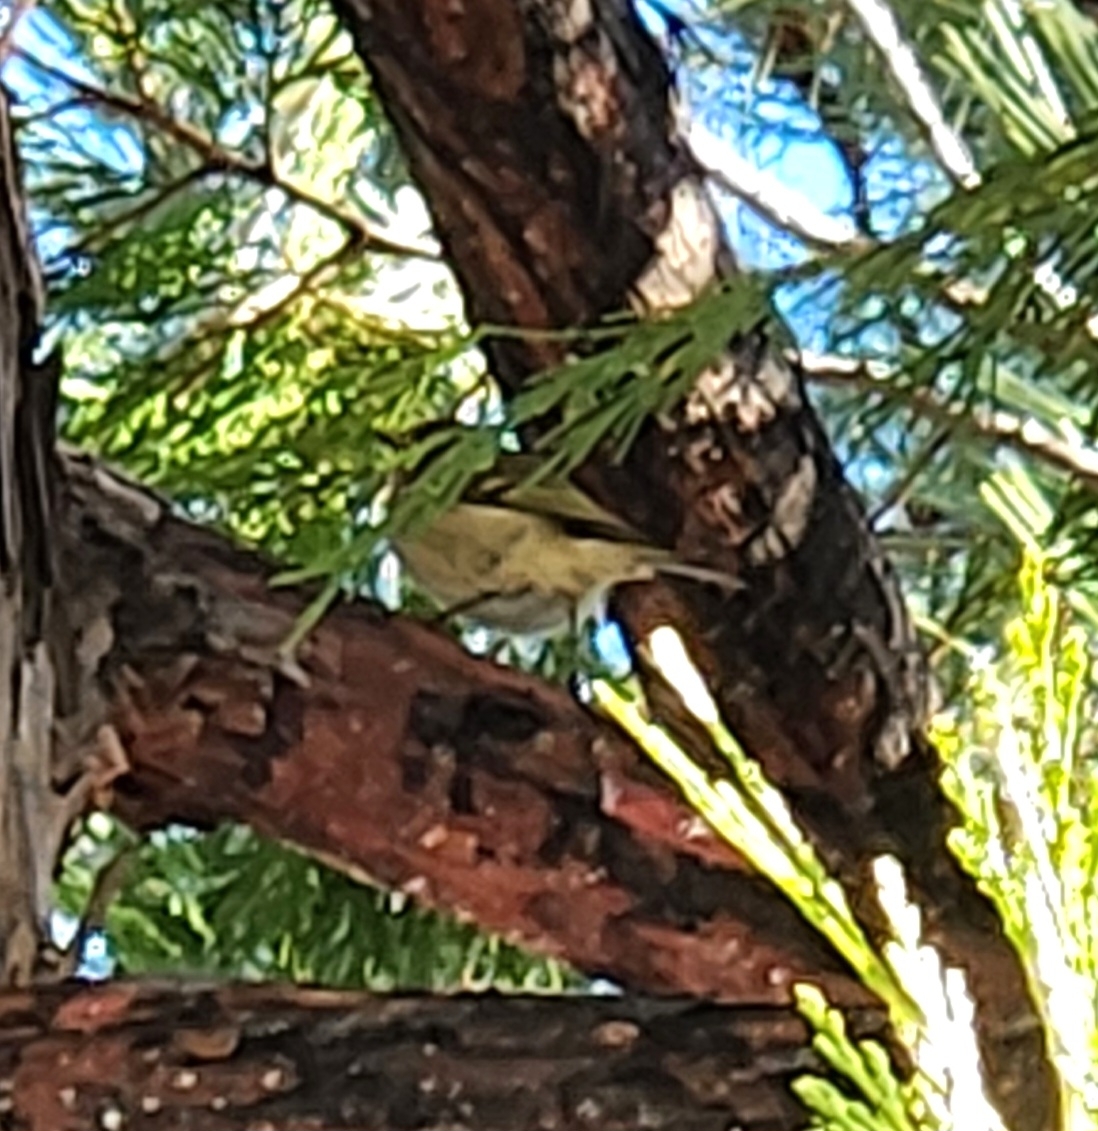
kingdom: Animalia
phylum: Chordata
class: Aves
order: Passeriformes
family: Regulidae
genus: Regulus
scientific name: Regulus calendula
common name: Ruby-crowned kinglet
